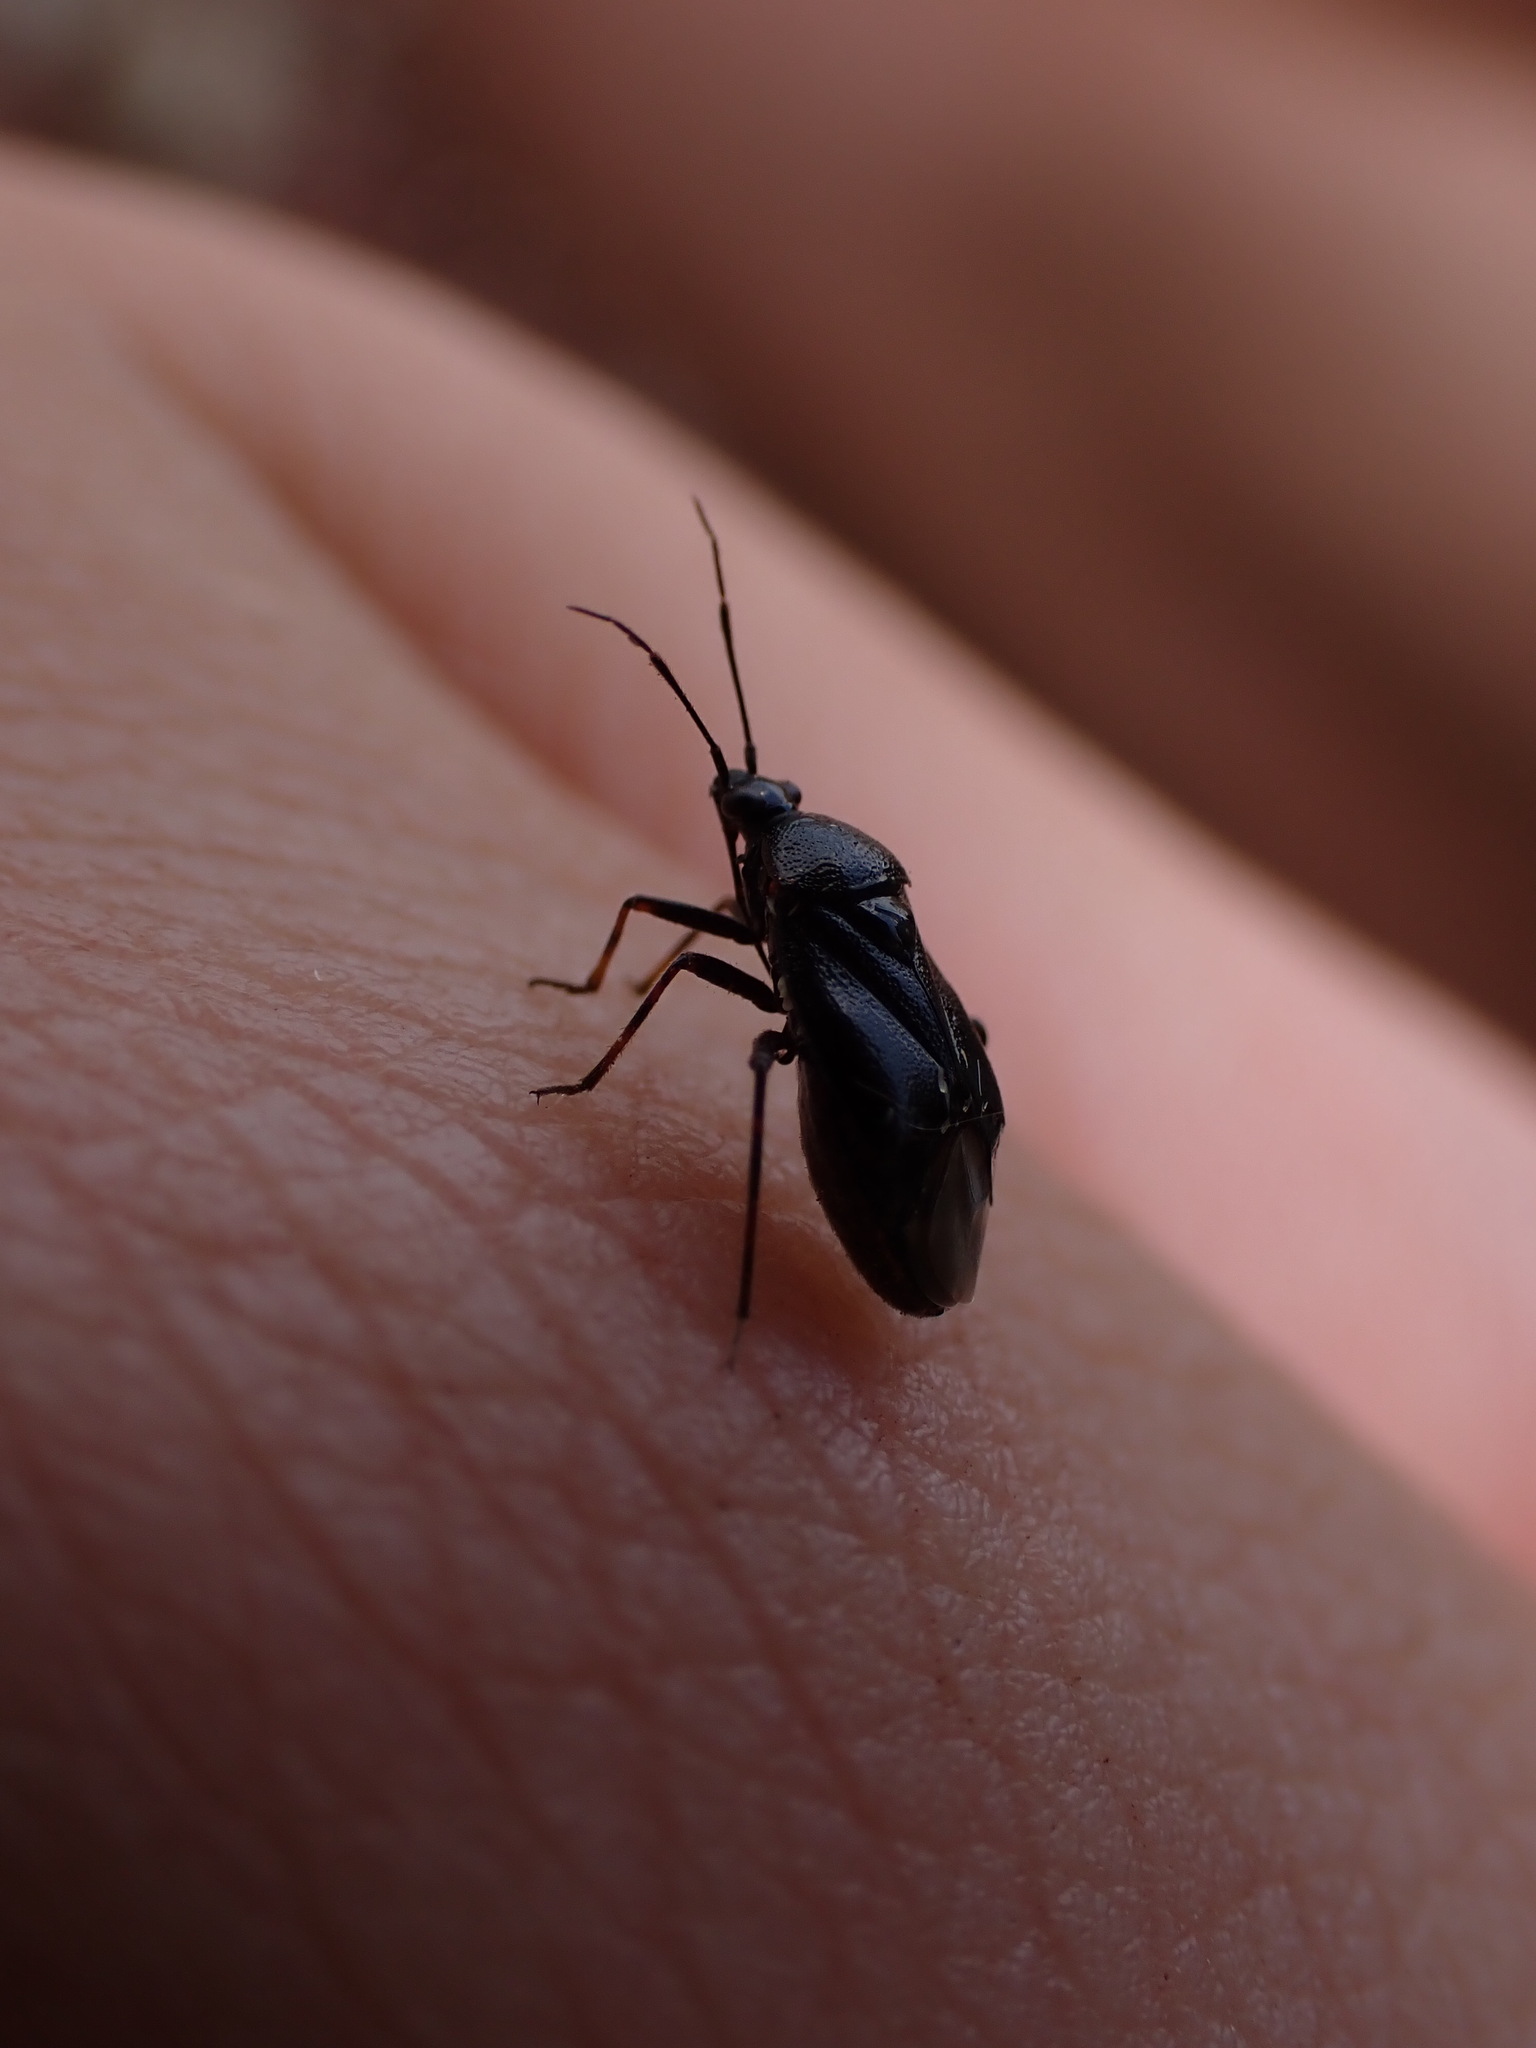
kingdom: Animalia
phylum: Arthropoda
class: Insecta
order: Hemiptera
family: Miridae
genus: Deraeocoris
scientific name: Deraeocoris ribauti
